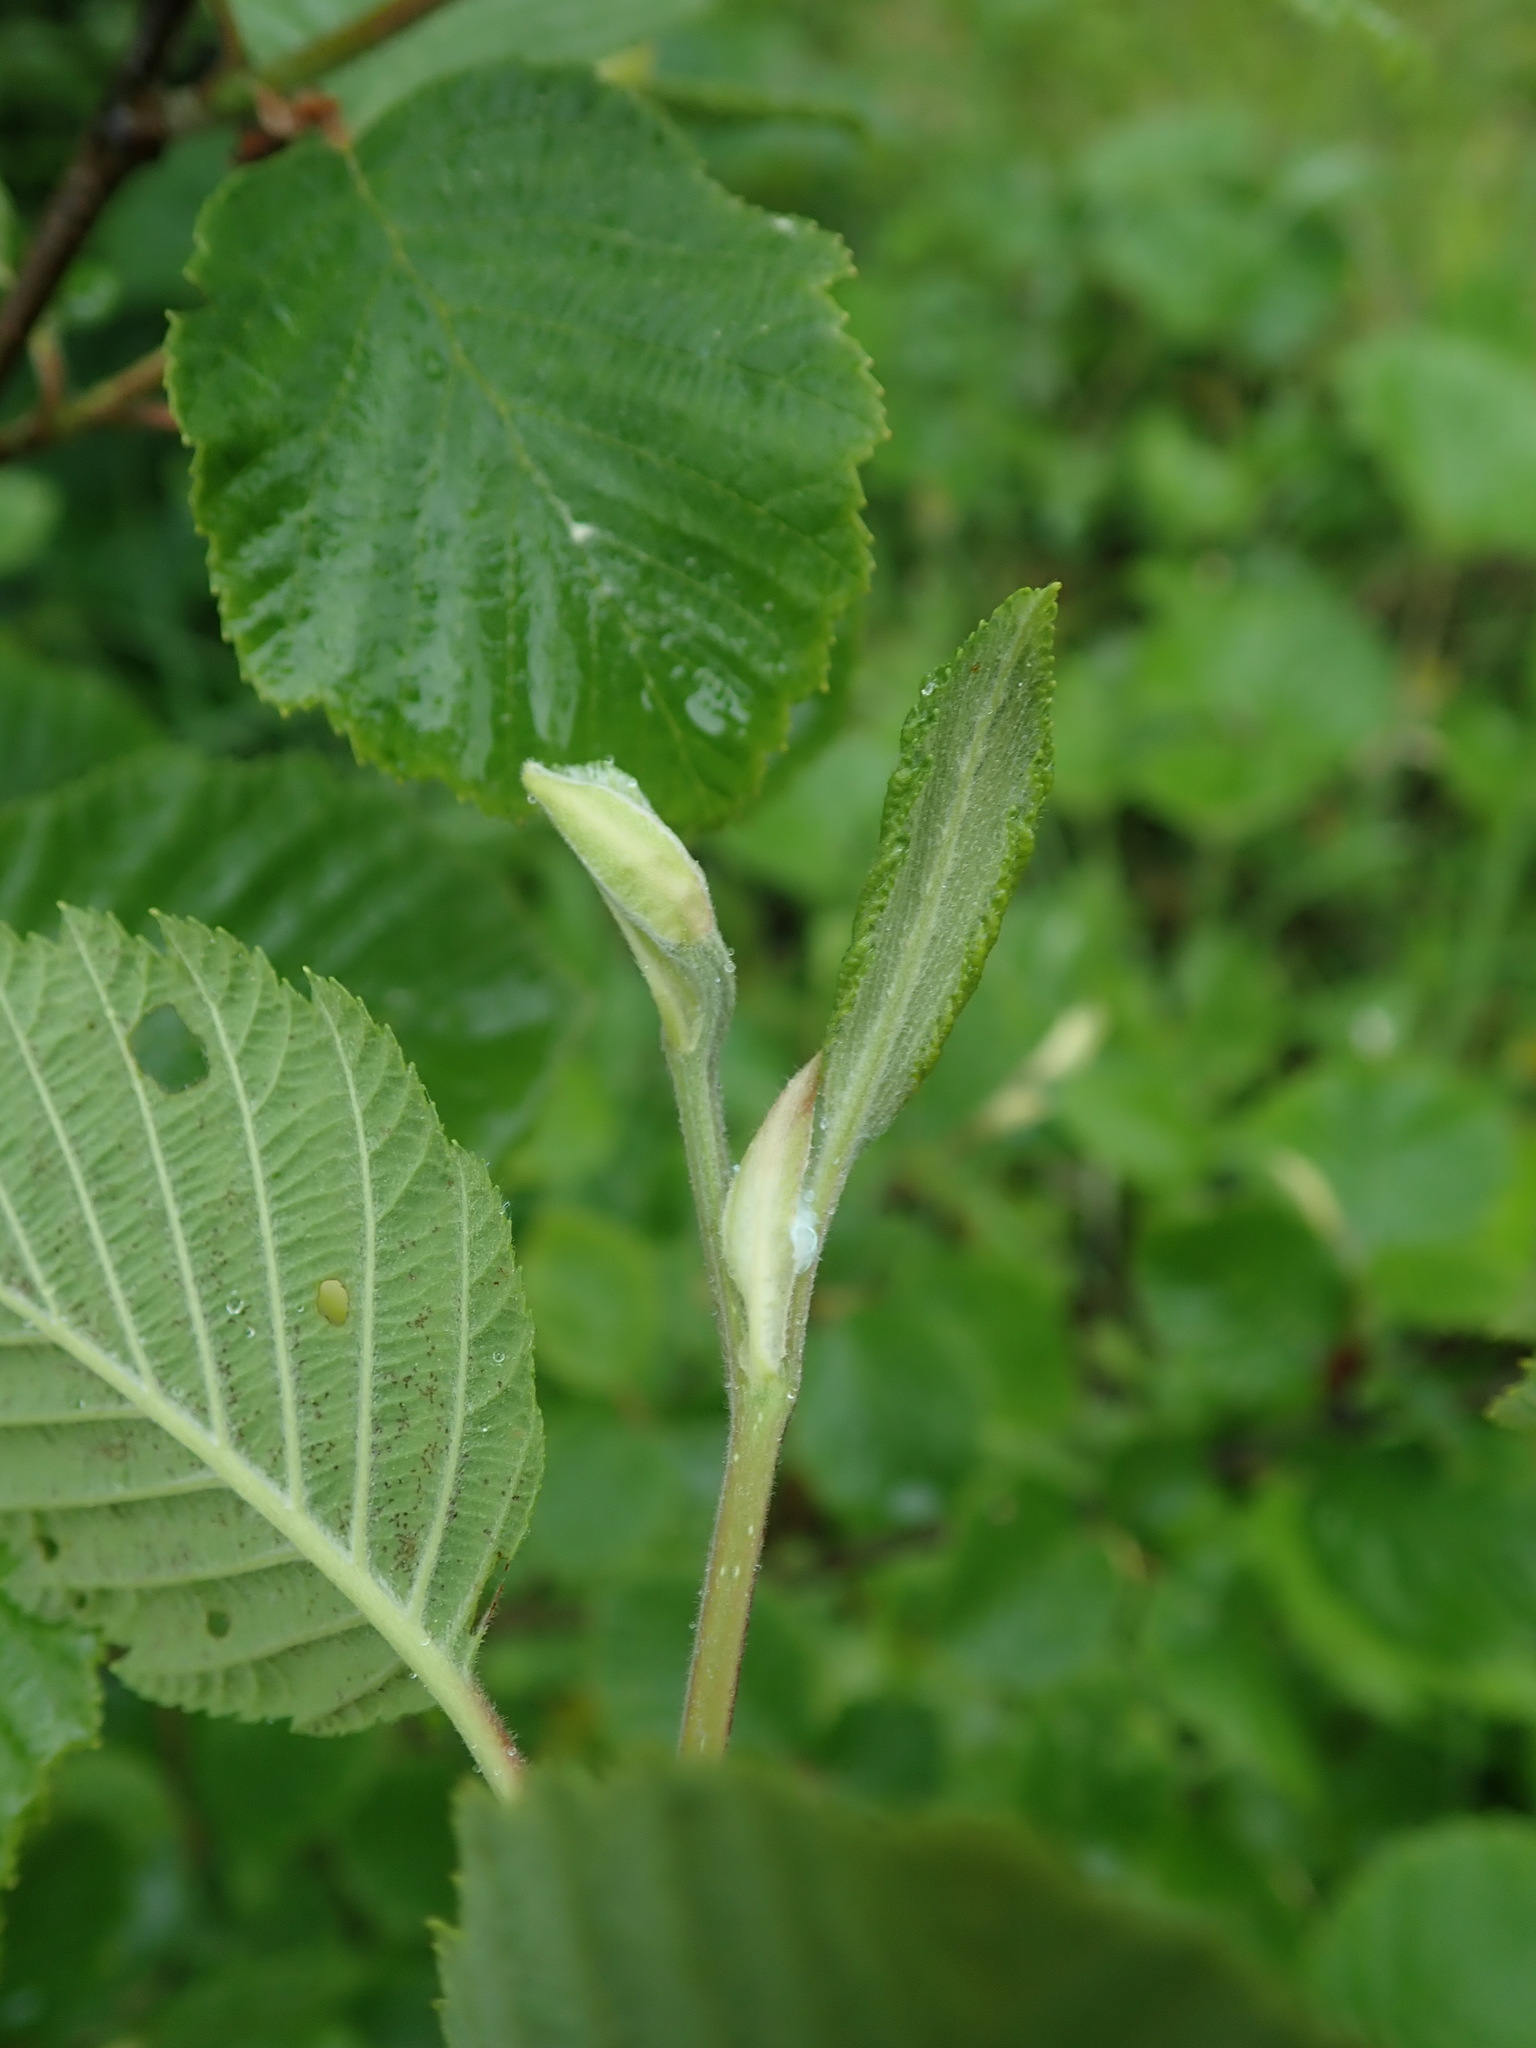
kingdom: Plantae
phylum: Tracheophyta
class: Magnoliopsida
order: Fagales
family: Betulaceae
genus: Alnus
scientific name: Alnus incana
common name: Grey alder
